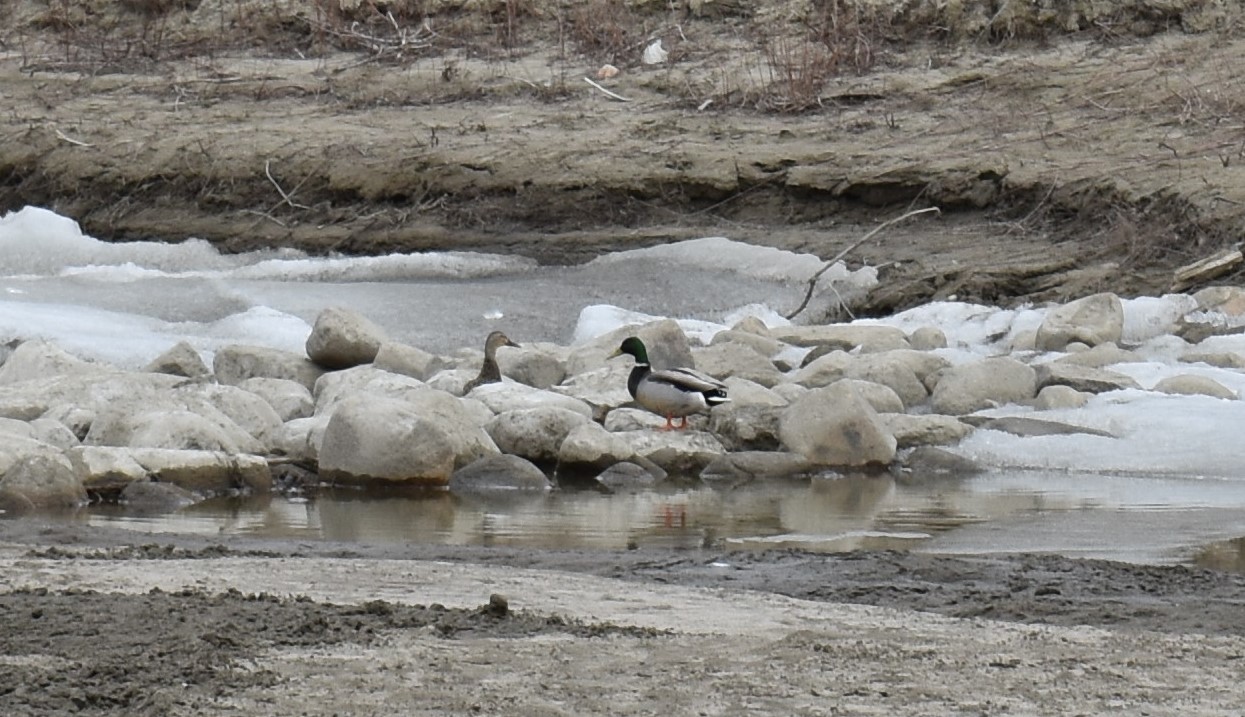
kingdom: Animalia
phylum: Chordata
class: Aves
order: Anseriformes
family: Anatidae
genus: Anas
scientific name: Anas platyrhynchos
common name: Mallard
